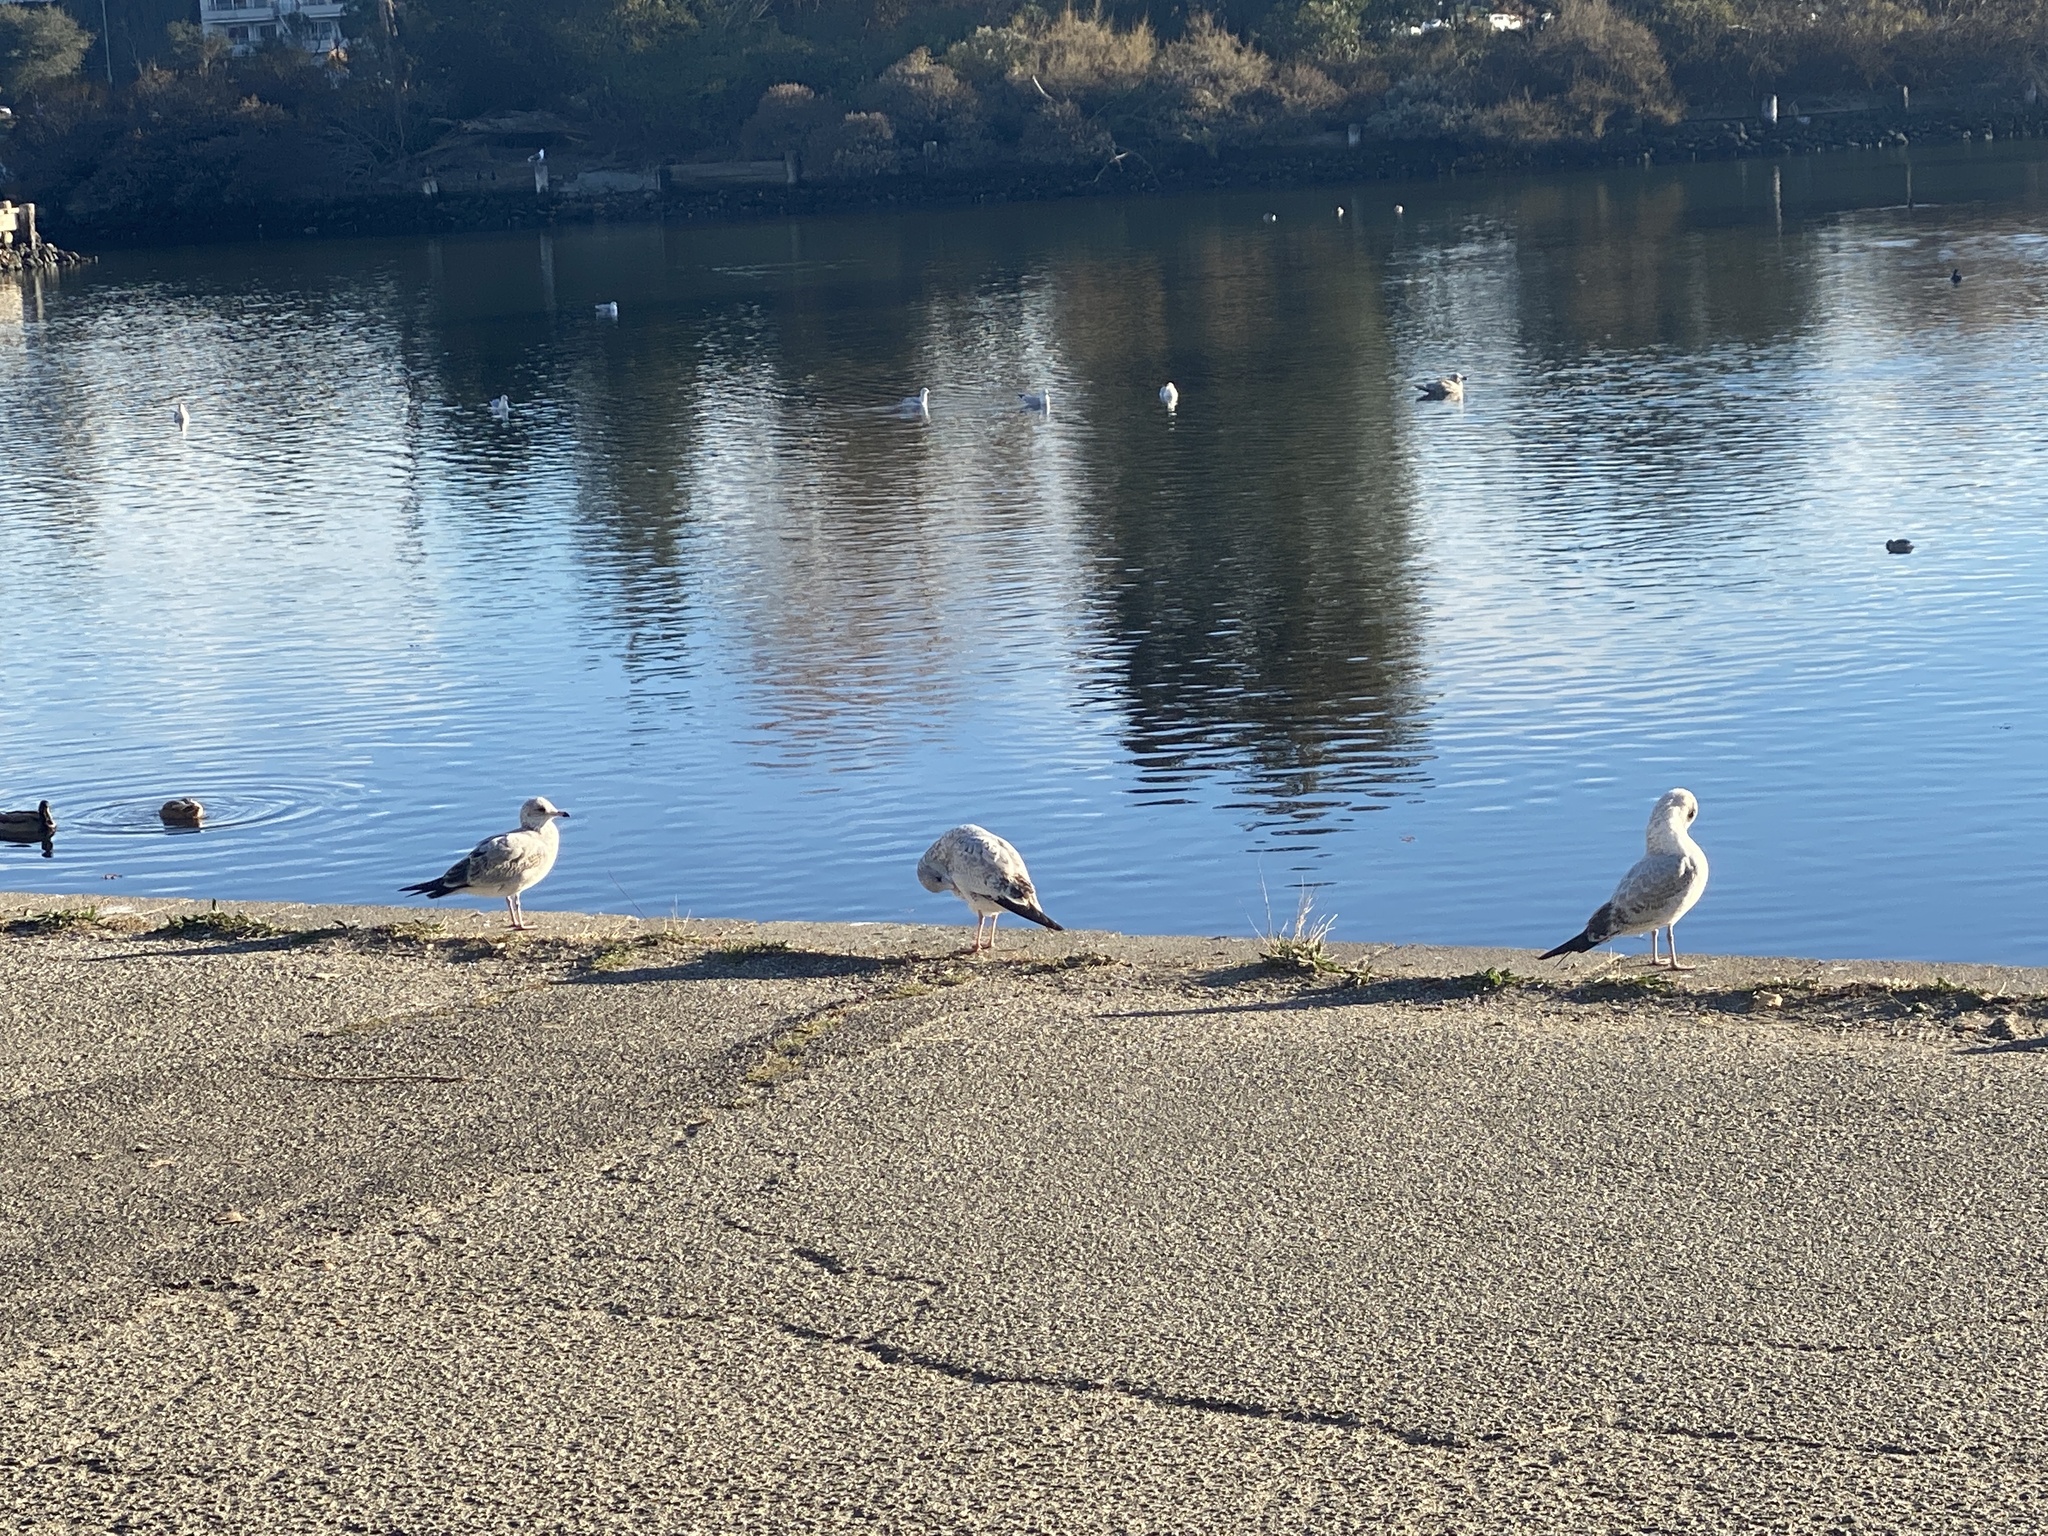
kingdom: Animalia
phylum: Chordata
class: Aves
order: Charadriiformes
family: Laridae
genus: Larus
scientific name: Larus delawarensis
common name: Ring-billed gull
